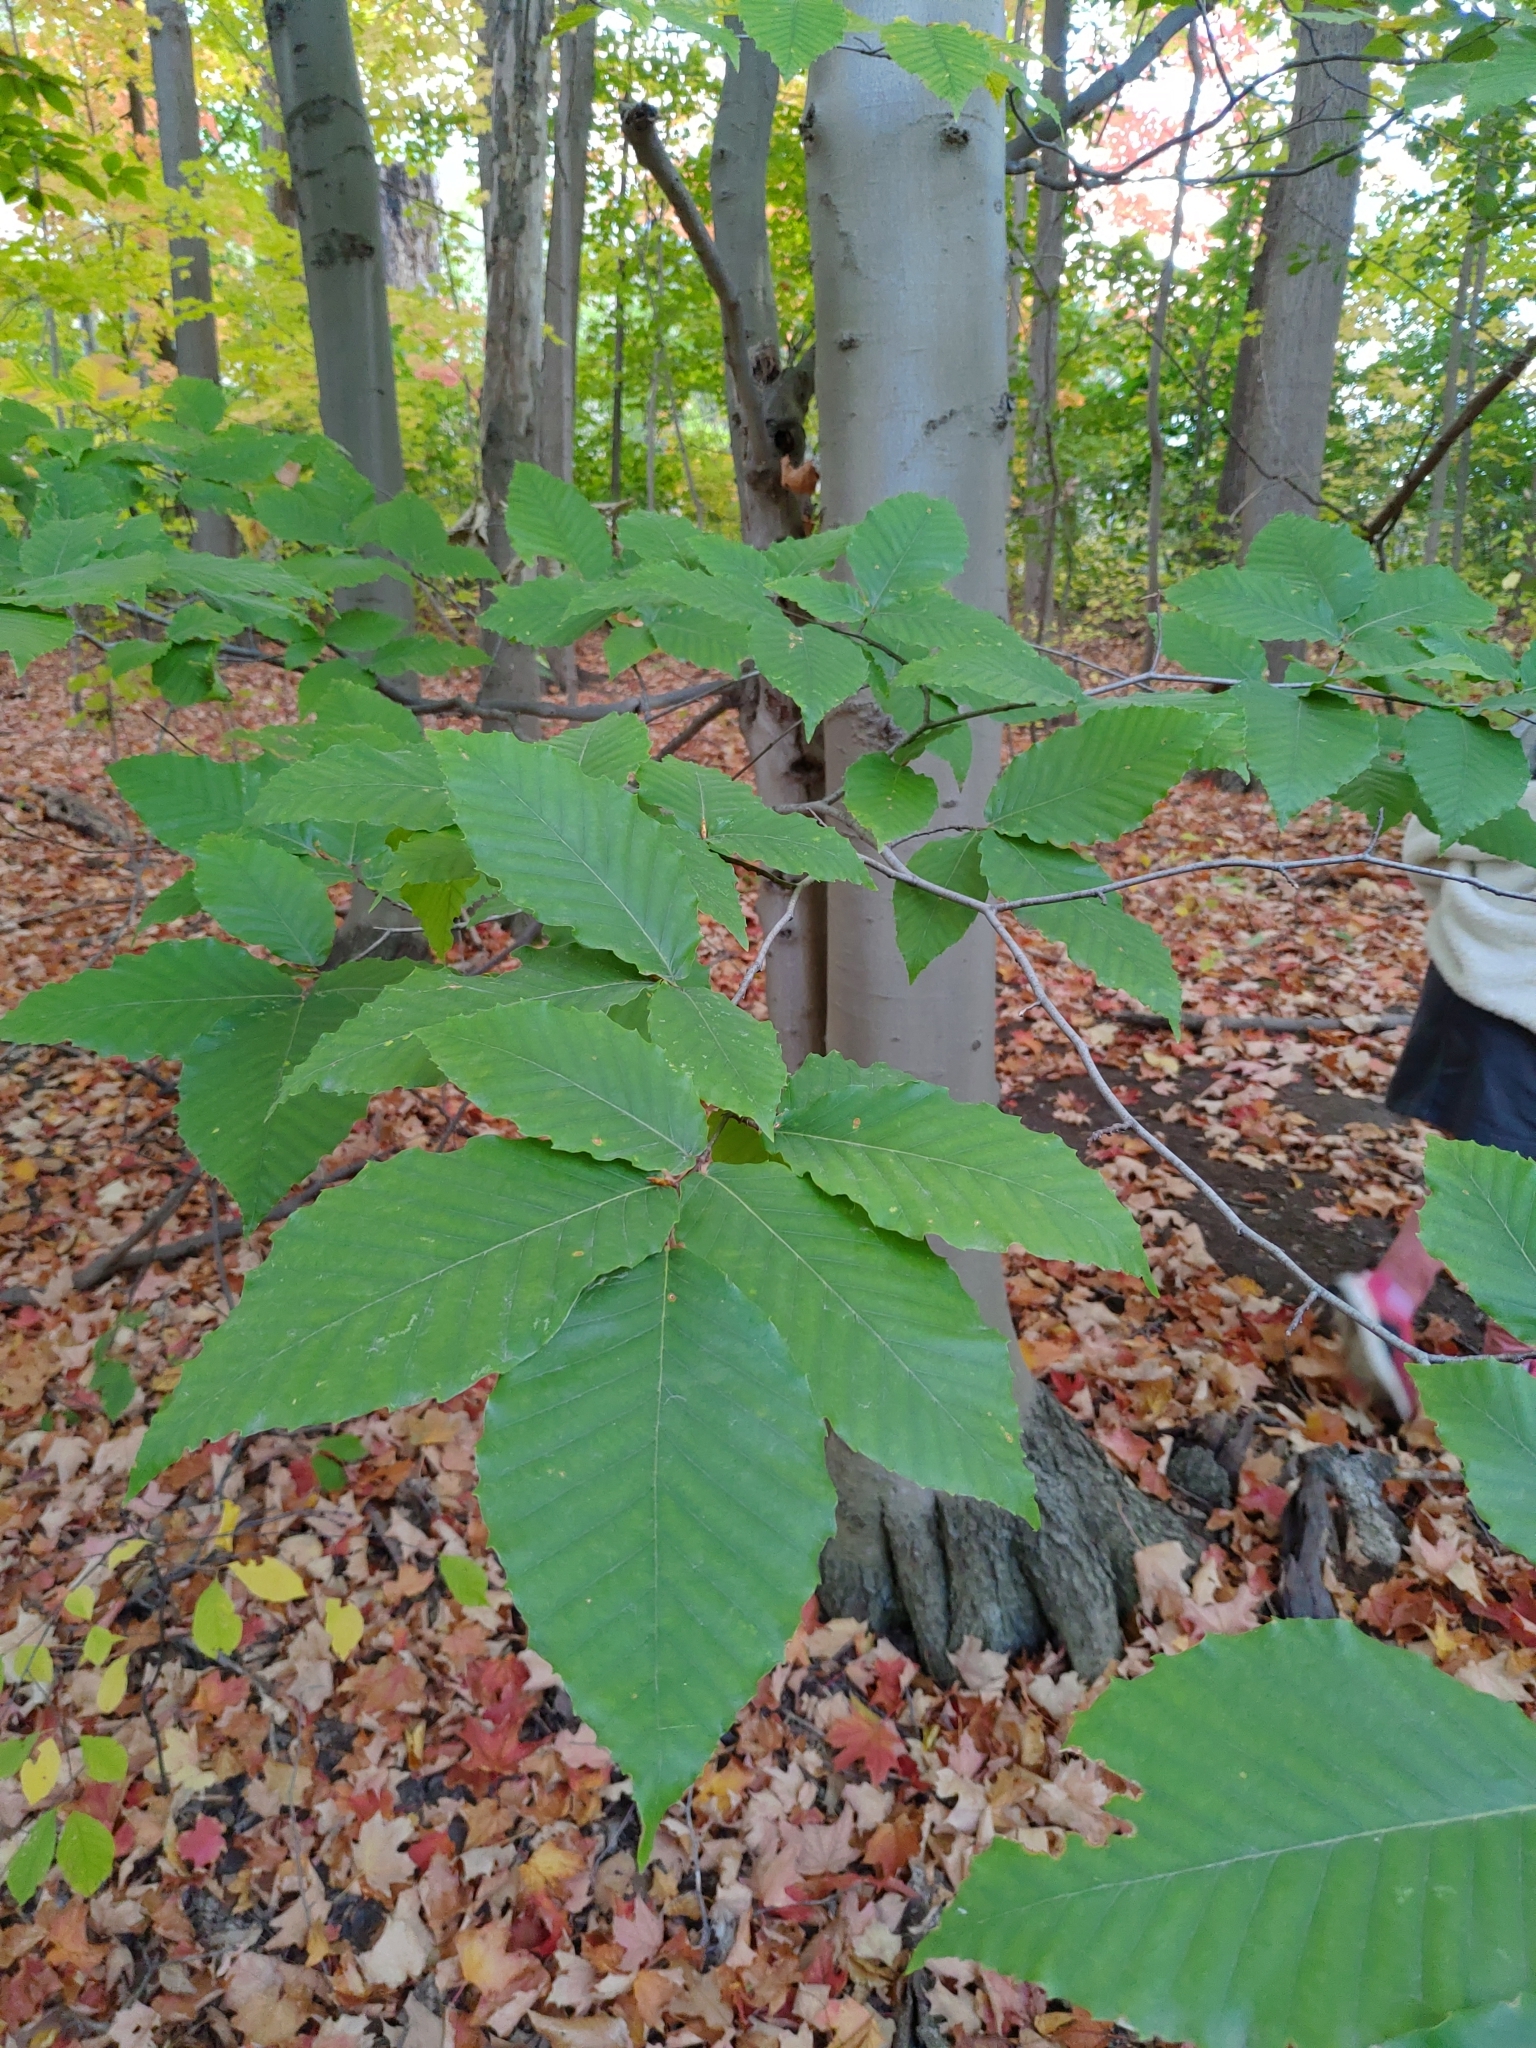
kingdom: Plantae
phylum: Tracheophyta
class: Magnoliopsida
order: Fagales
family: Fagaceae
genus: Fagus
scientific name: Fagus grandifolia
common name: American beech
